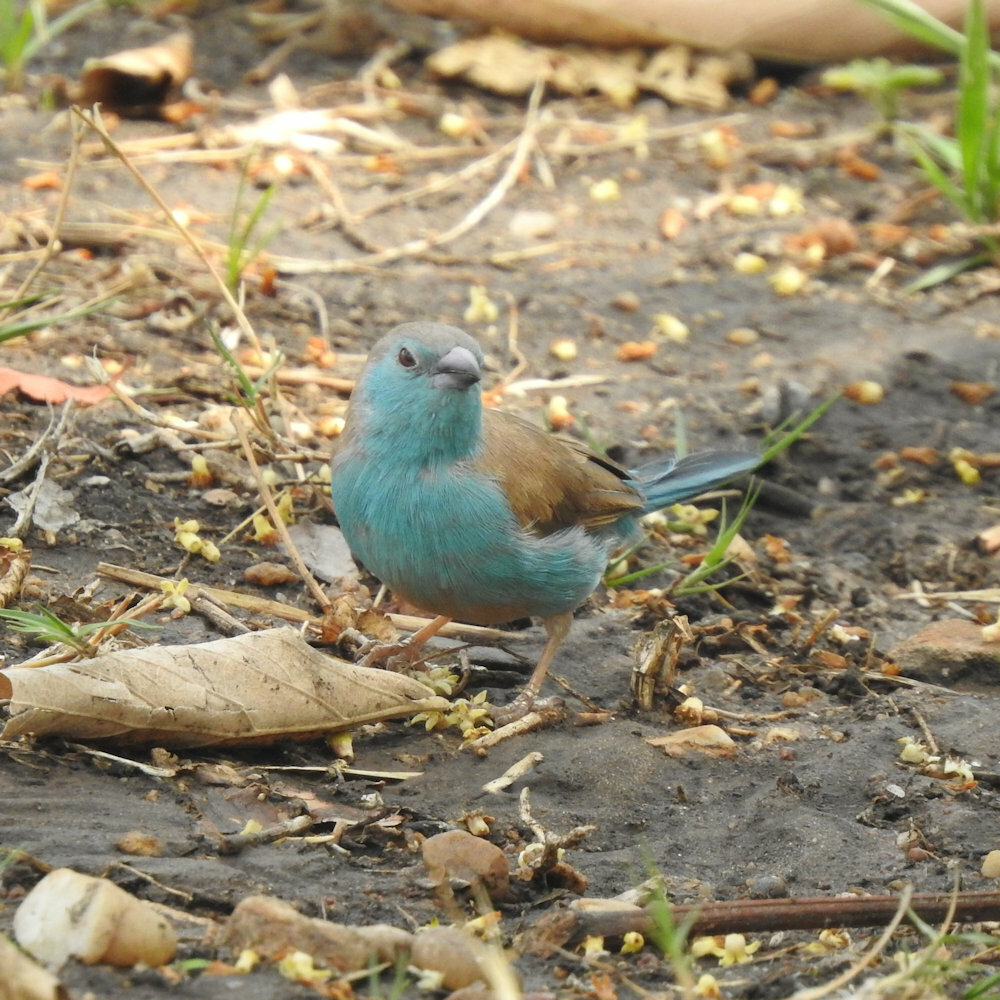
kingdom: Animalia
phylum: Chordata
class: Aves
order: Passeriformes
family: Estrildidae
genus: Uraeginthus
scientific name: Uraeginthus angolensis
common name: Blue waxbill
